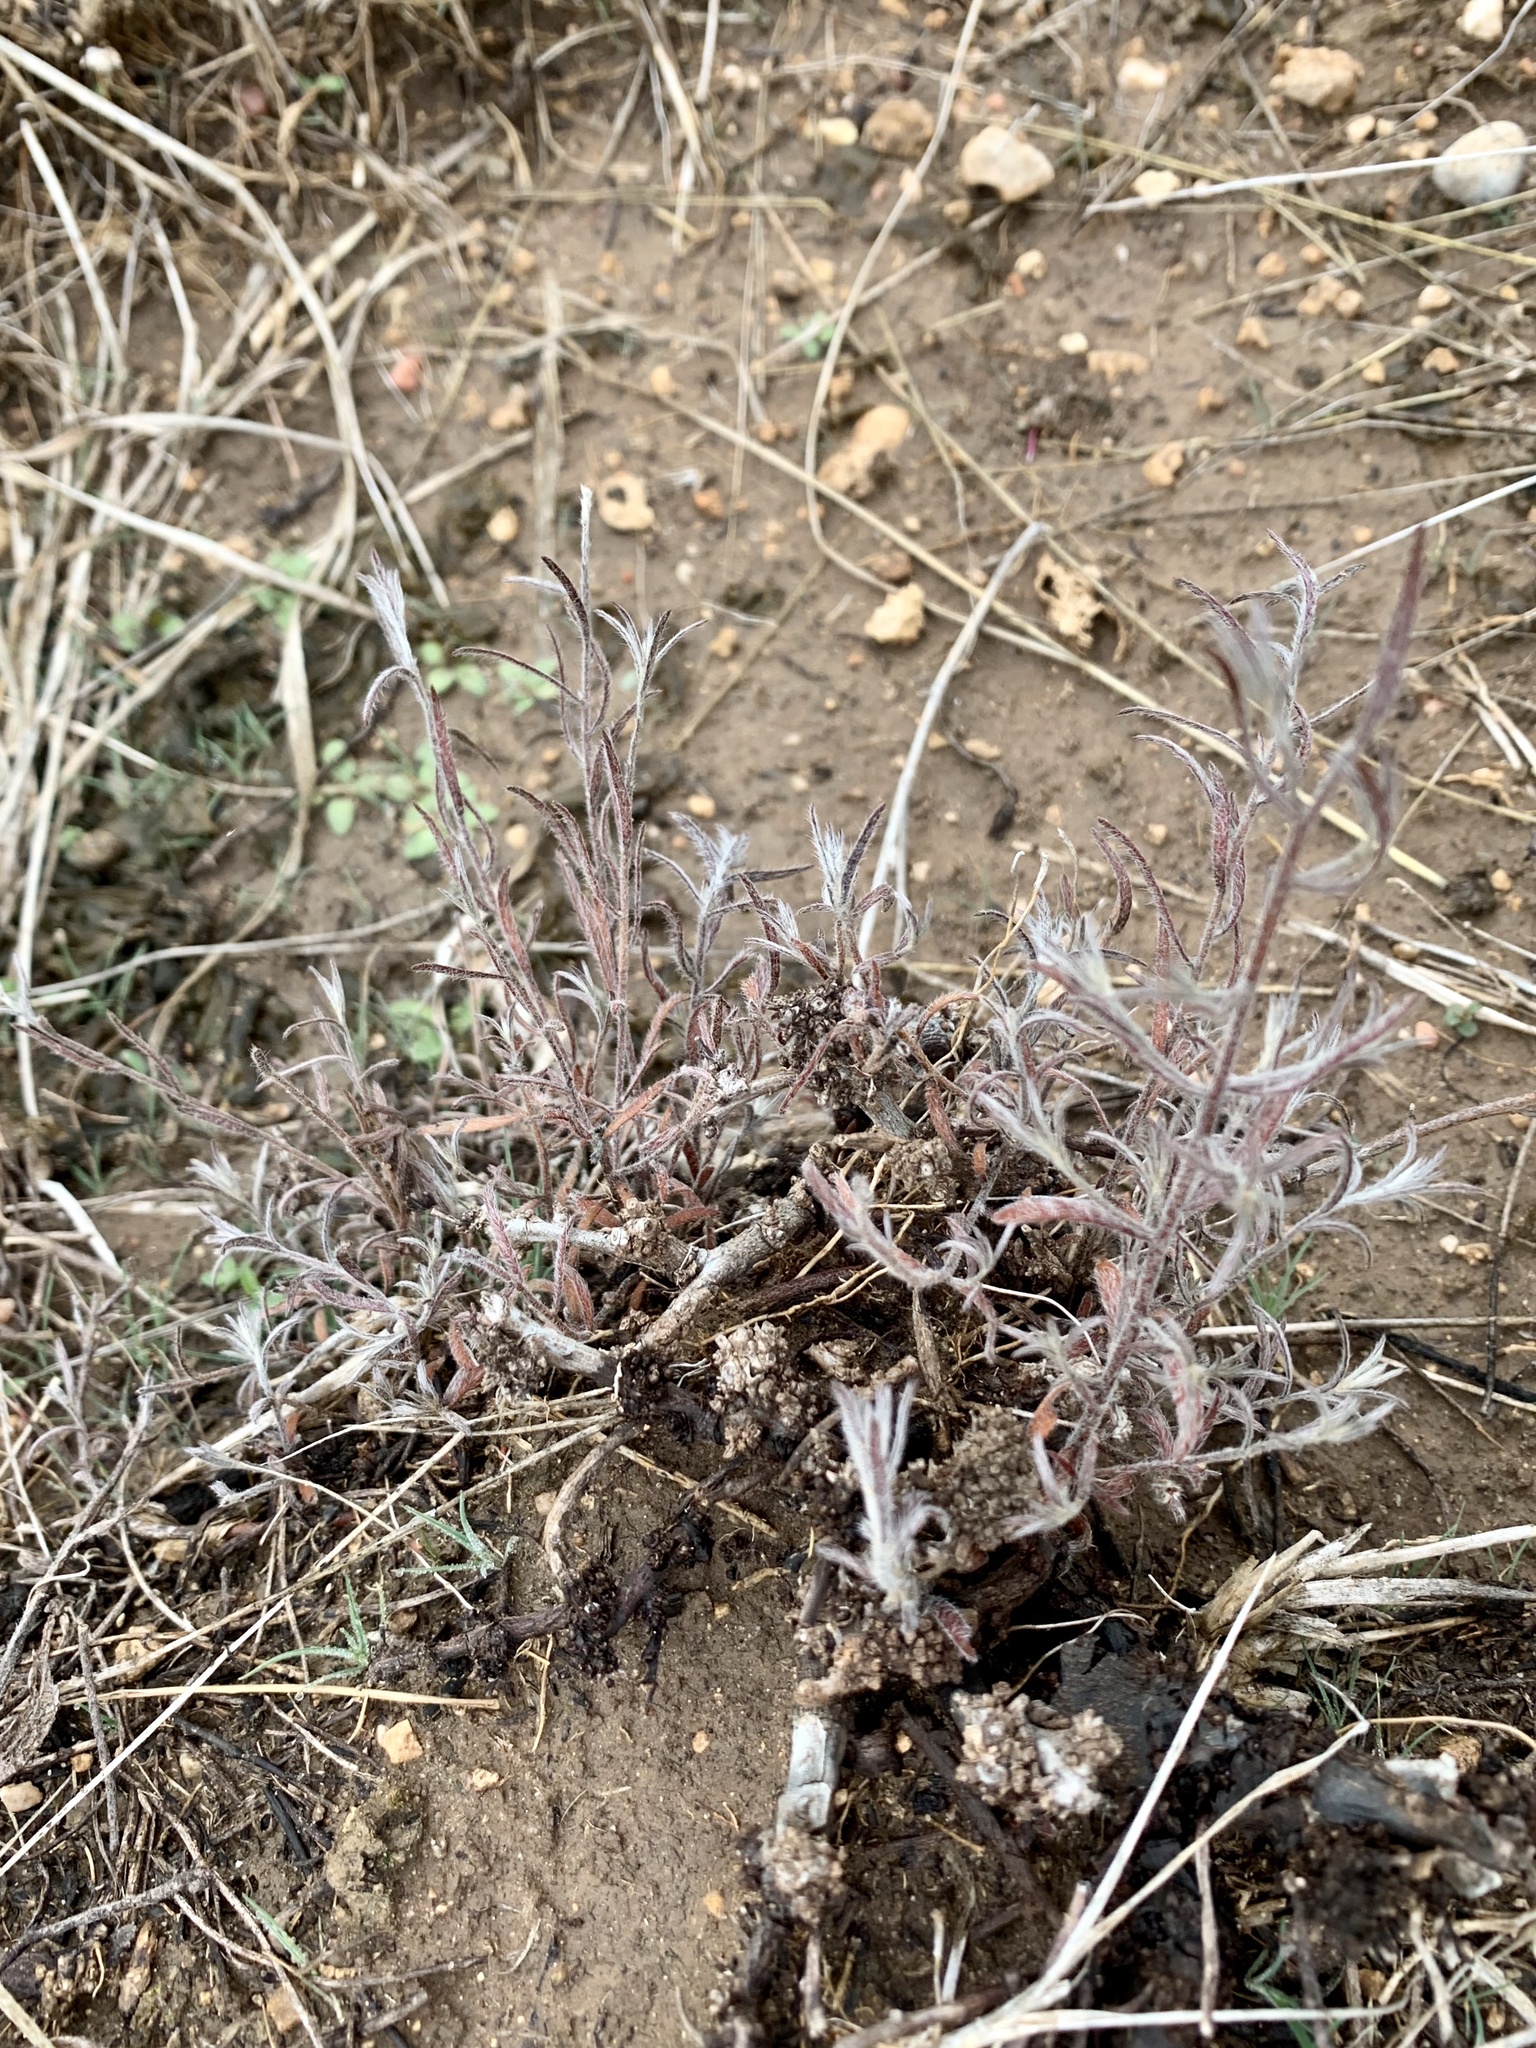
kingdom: Plantae
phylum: Tracheophyta
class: Magnoliopsida
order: Zygophyllales
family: Krameriaceae
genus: Krameria
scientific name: Krameria lanceolata
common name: Ratany
